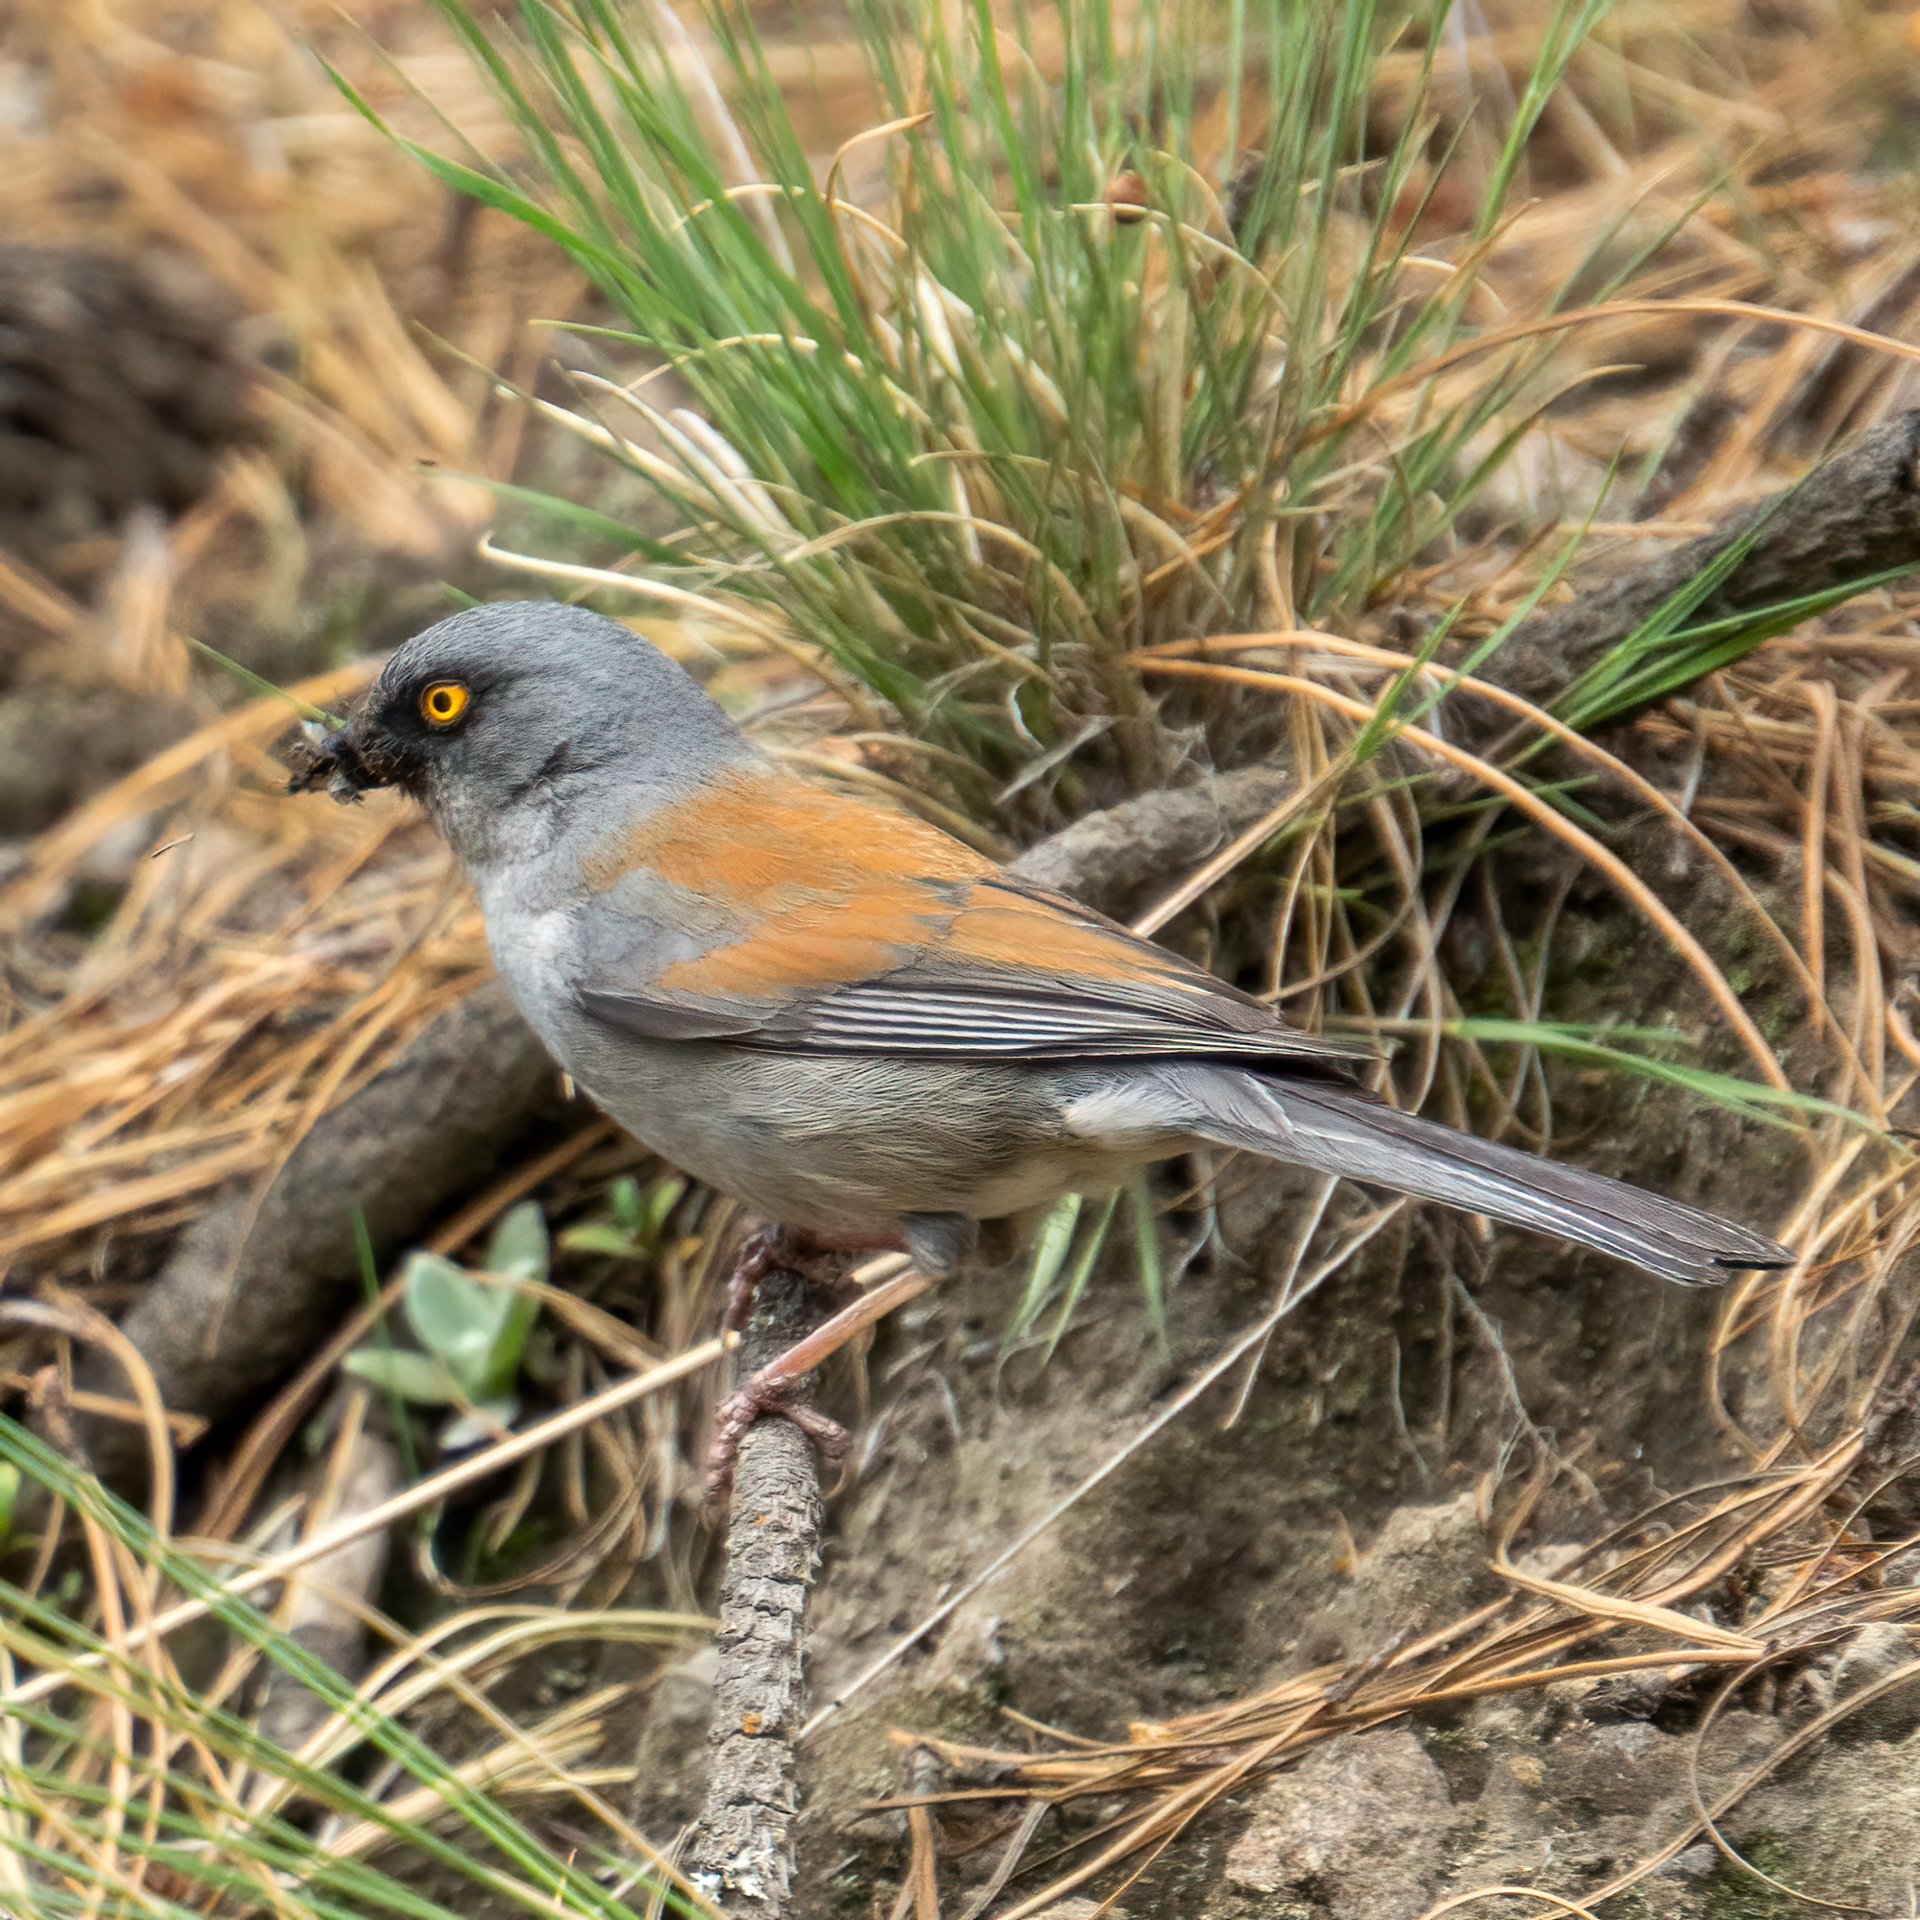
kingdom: Animalia
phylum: Chordata
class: Aves
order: Passeriformes
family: Passerellidae
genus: Junco
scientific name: Junco phaeonotus
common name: Yellow-eyed junco
